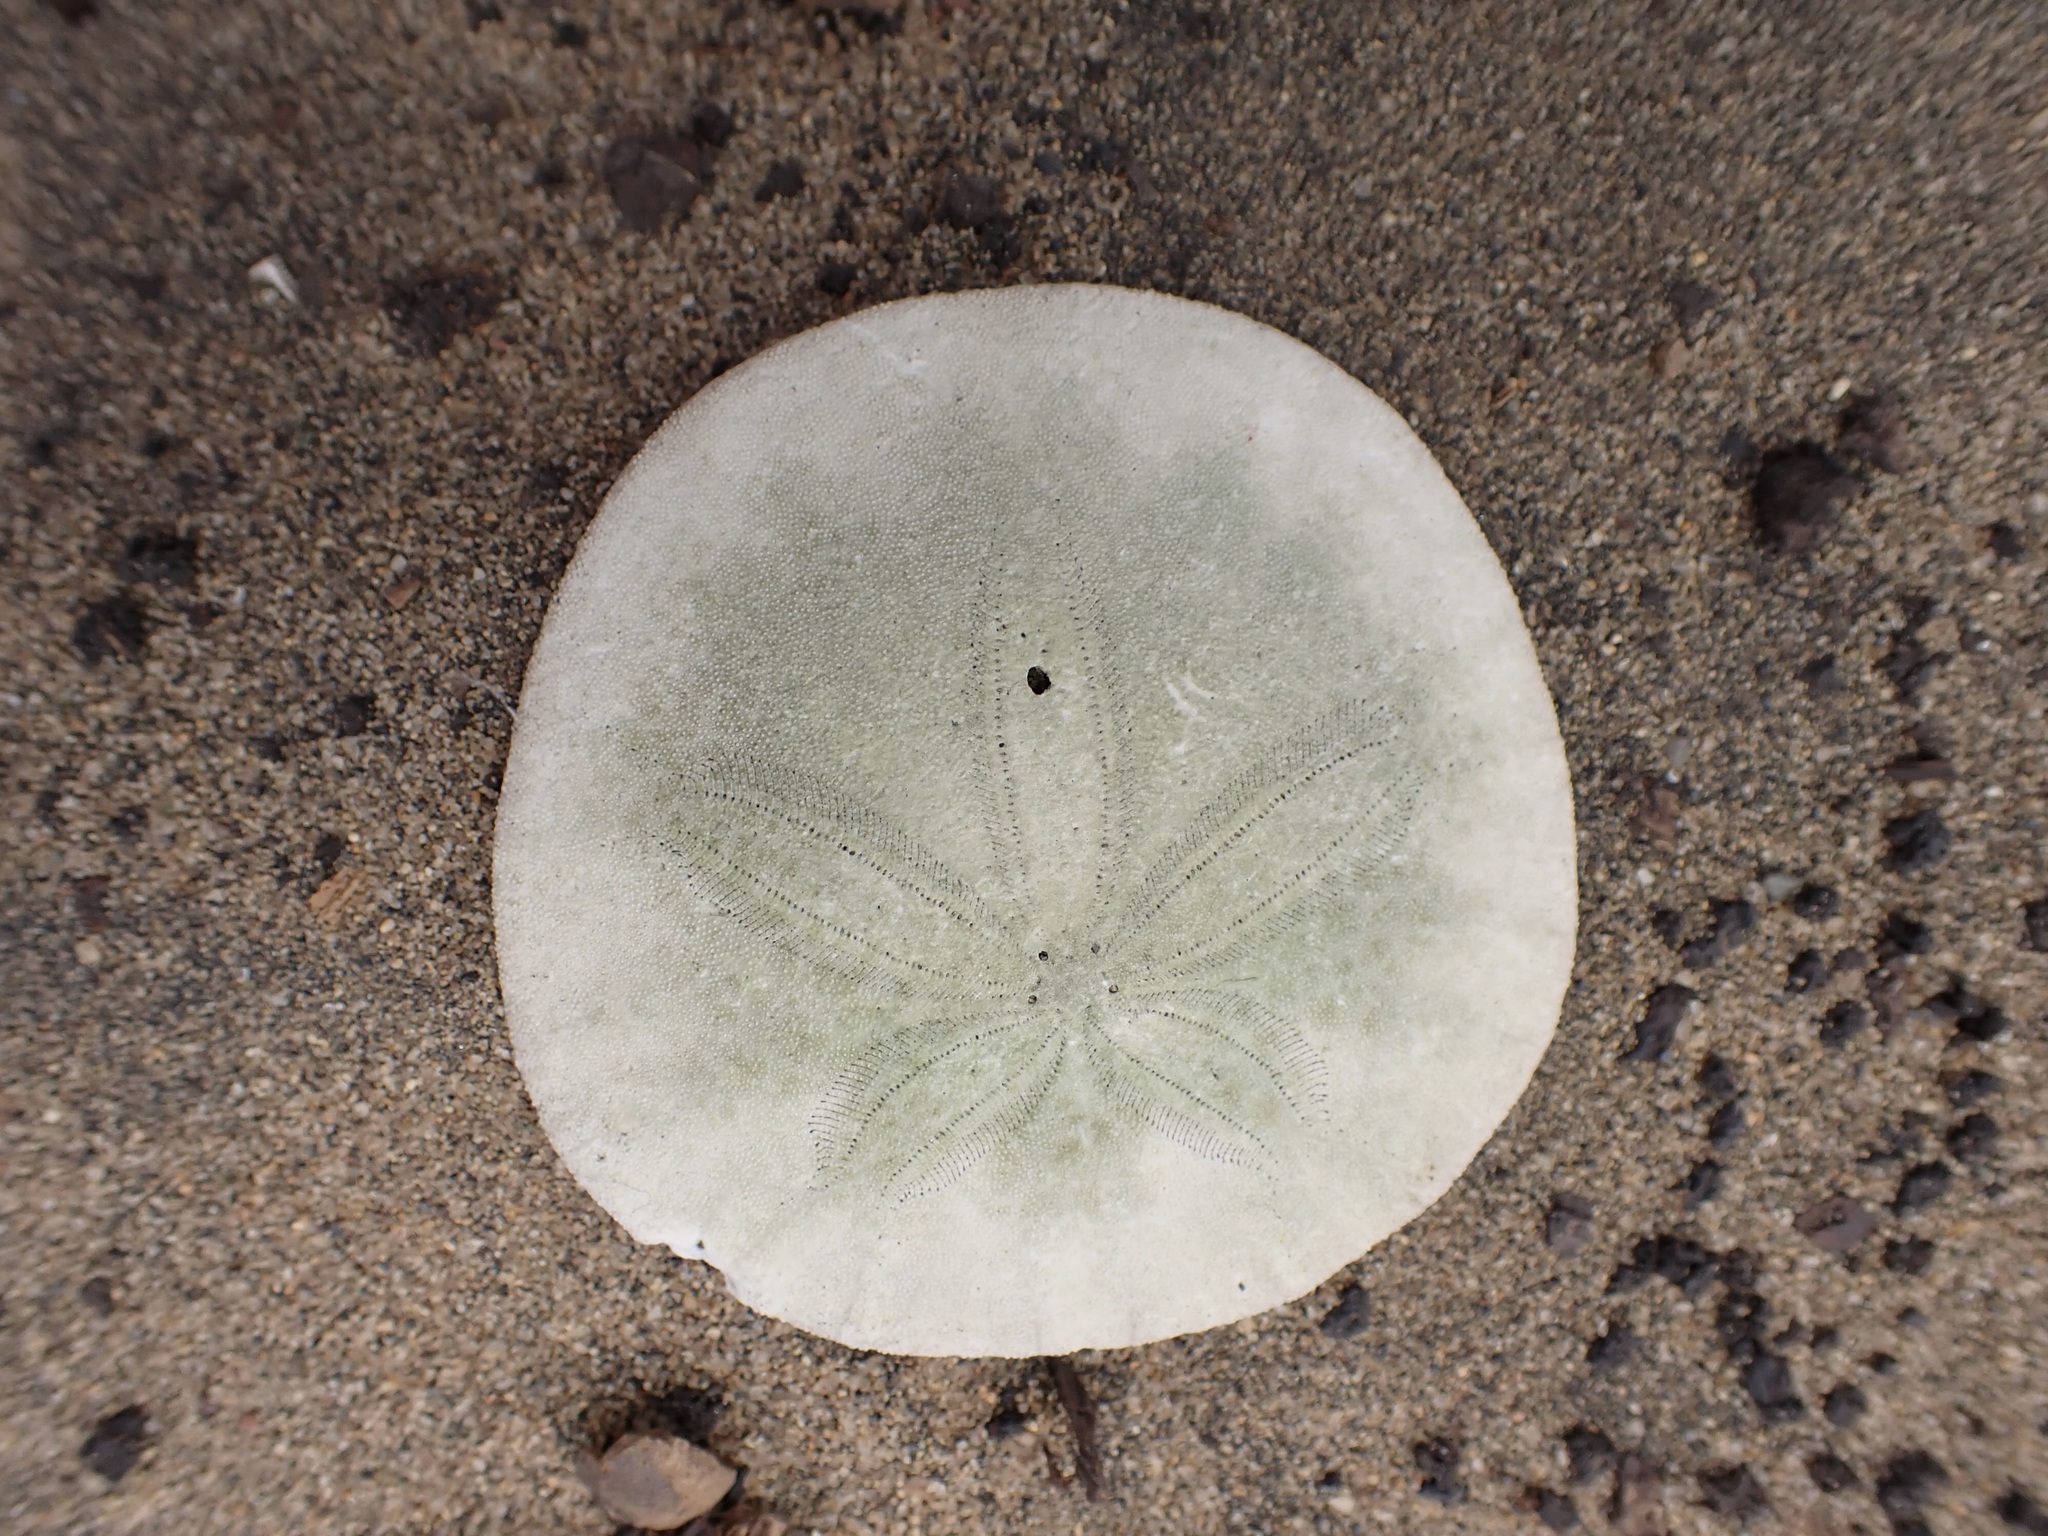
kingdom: Animalia
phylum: Echinodermata
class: Echinoidea
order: Echinolampadacea
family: Dendrasteridae
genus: Dendraster
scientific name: Dendraster excentricus
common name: Eccentric sand dollar sea urchin
